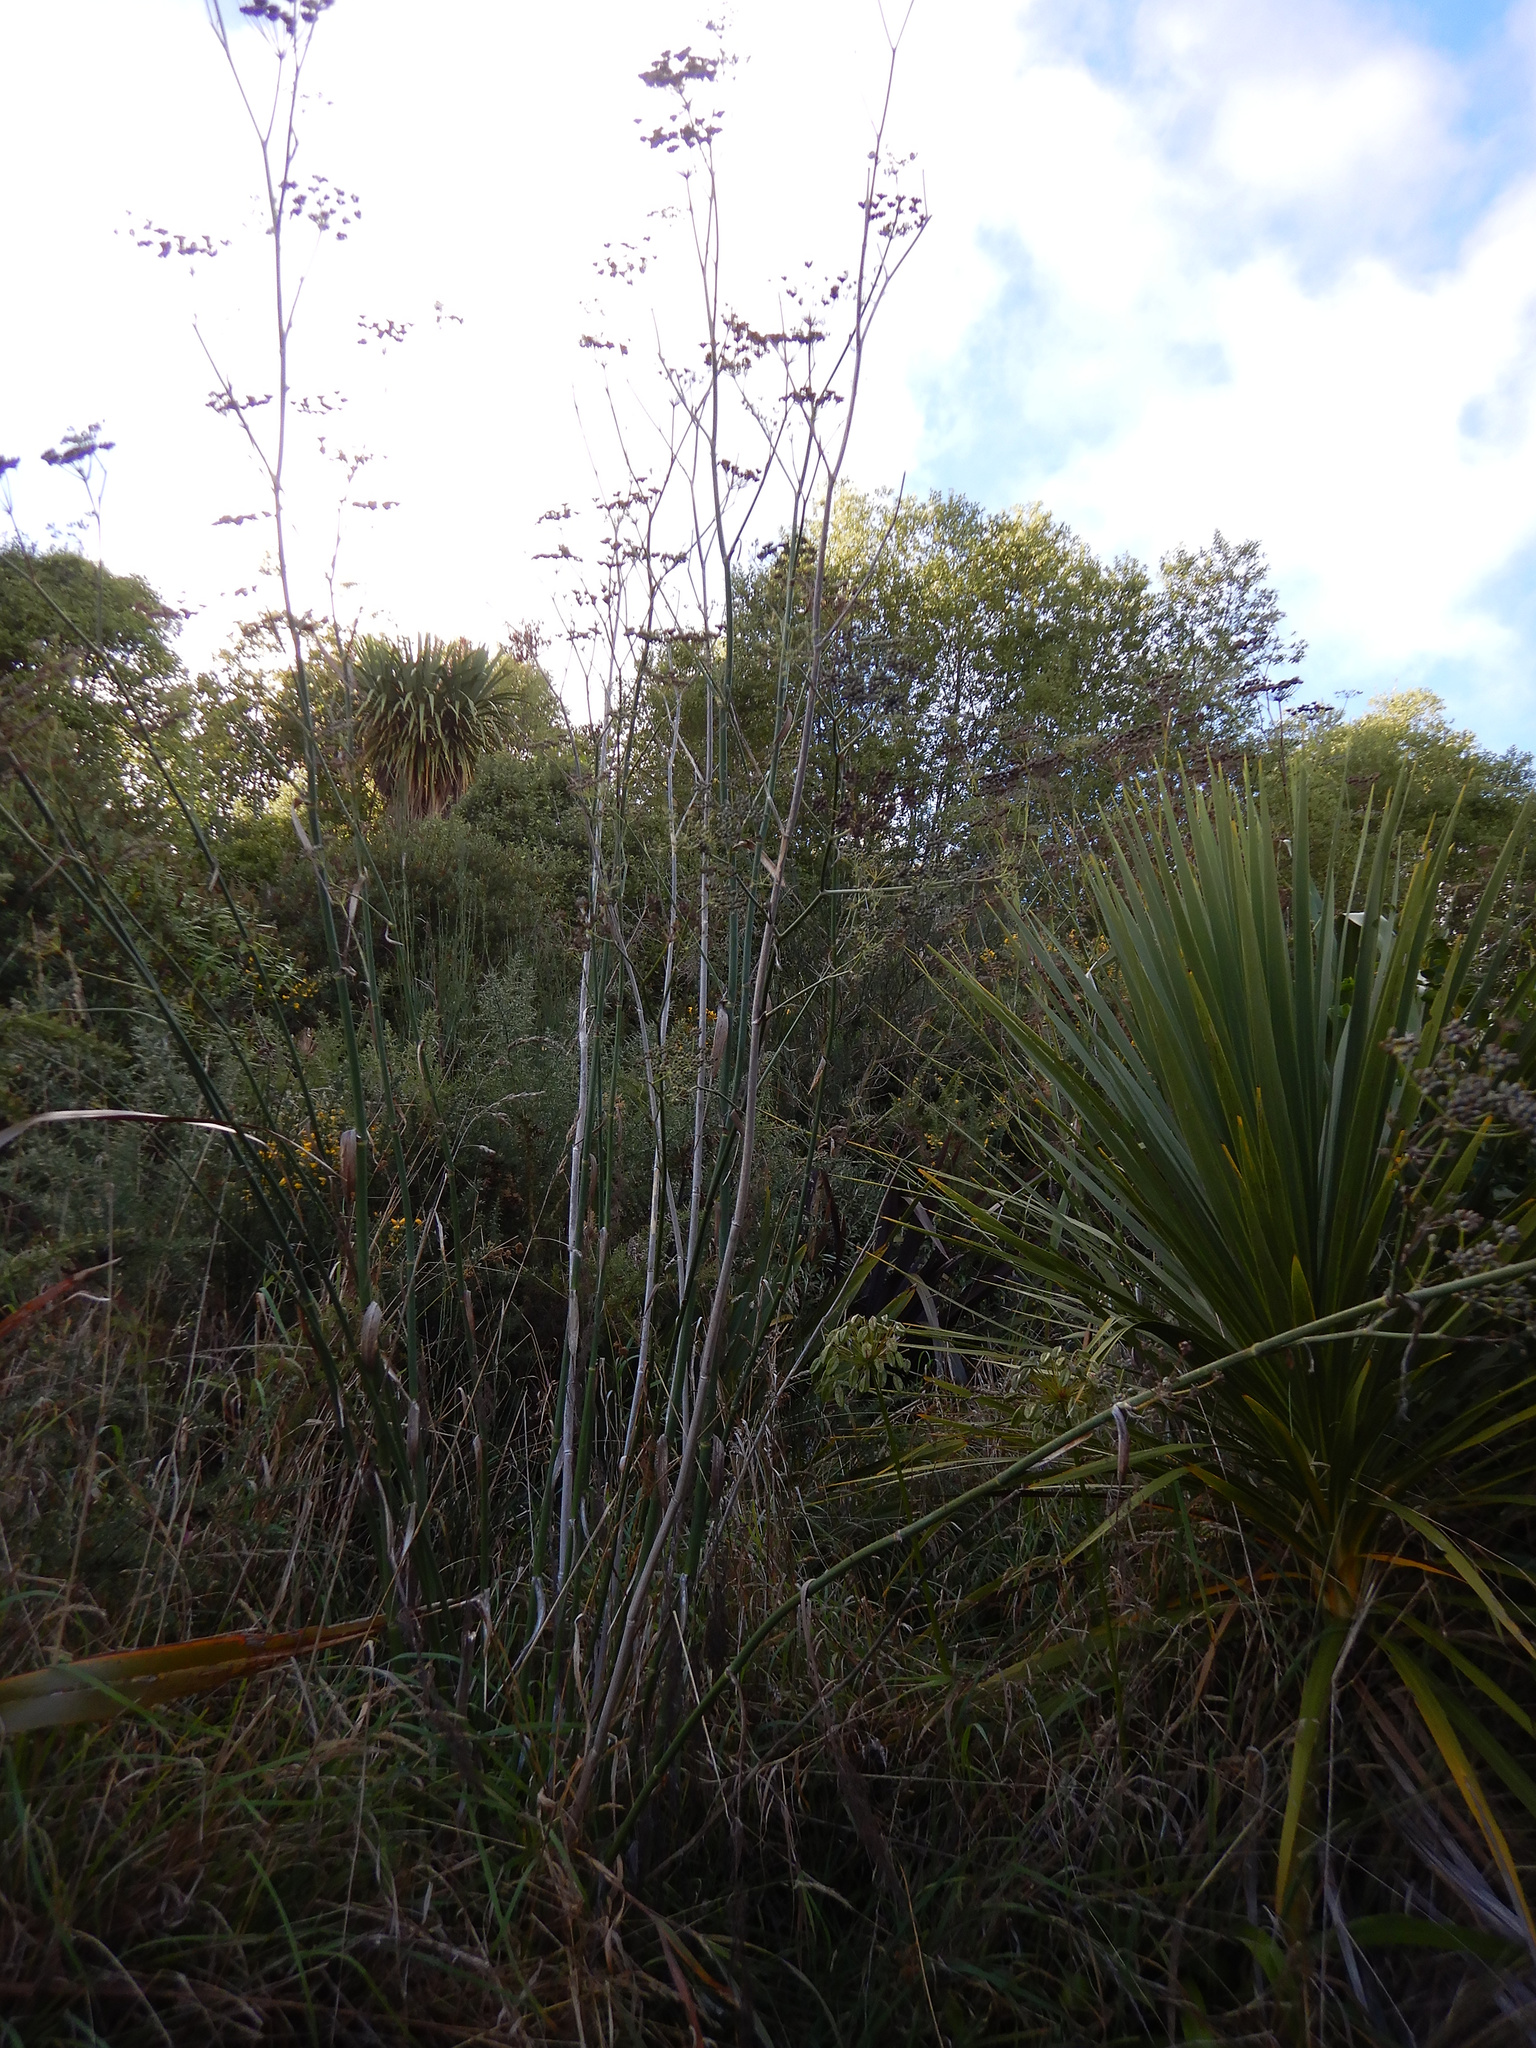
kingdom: Plantae
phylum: Tracheophyta
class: Magnoliopsida
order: Apiales
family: Apiaceae
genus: Foeniculum
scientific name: Foeniculum vulgare
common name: Fennel
